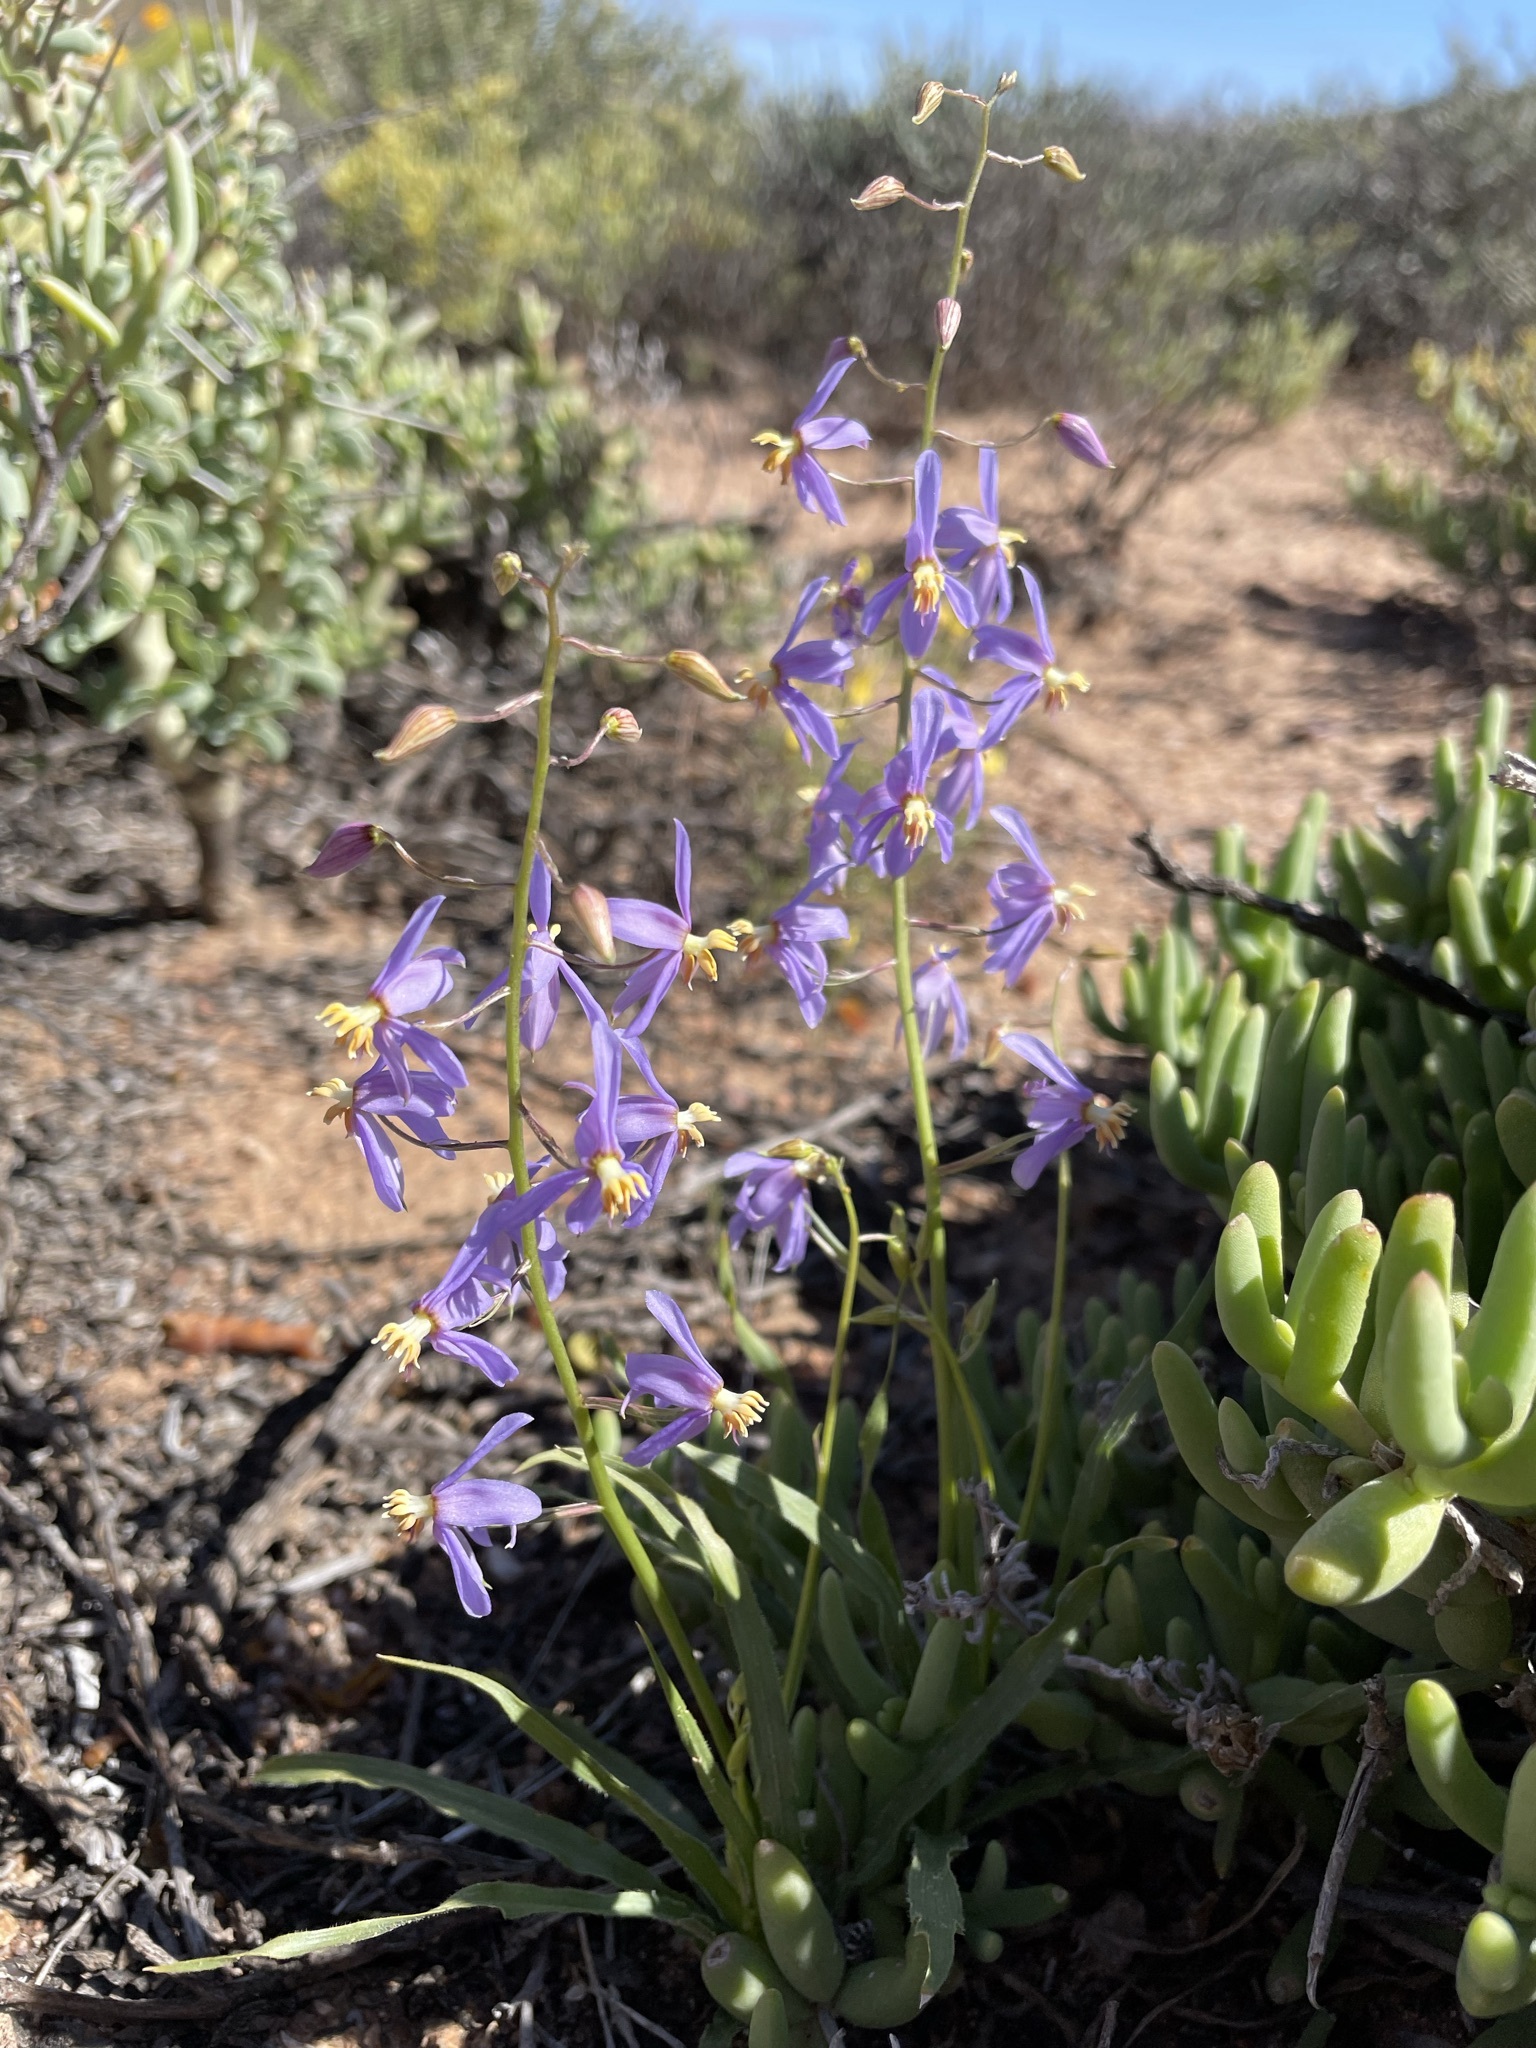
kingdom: Plantae
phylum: Tracheophyta
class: Liliopsida
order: Asparagales
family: Tecophilaeaceae
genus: Cyanella
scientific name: Cyanella hyacinthoides
